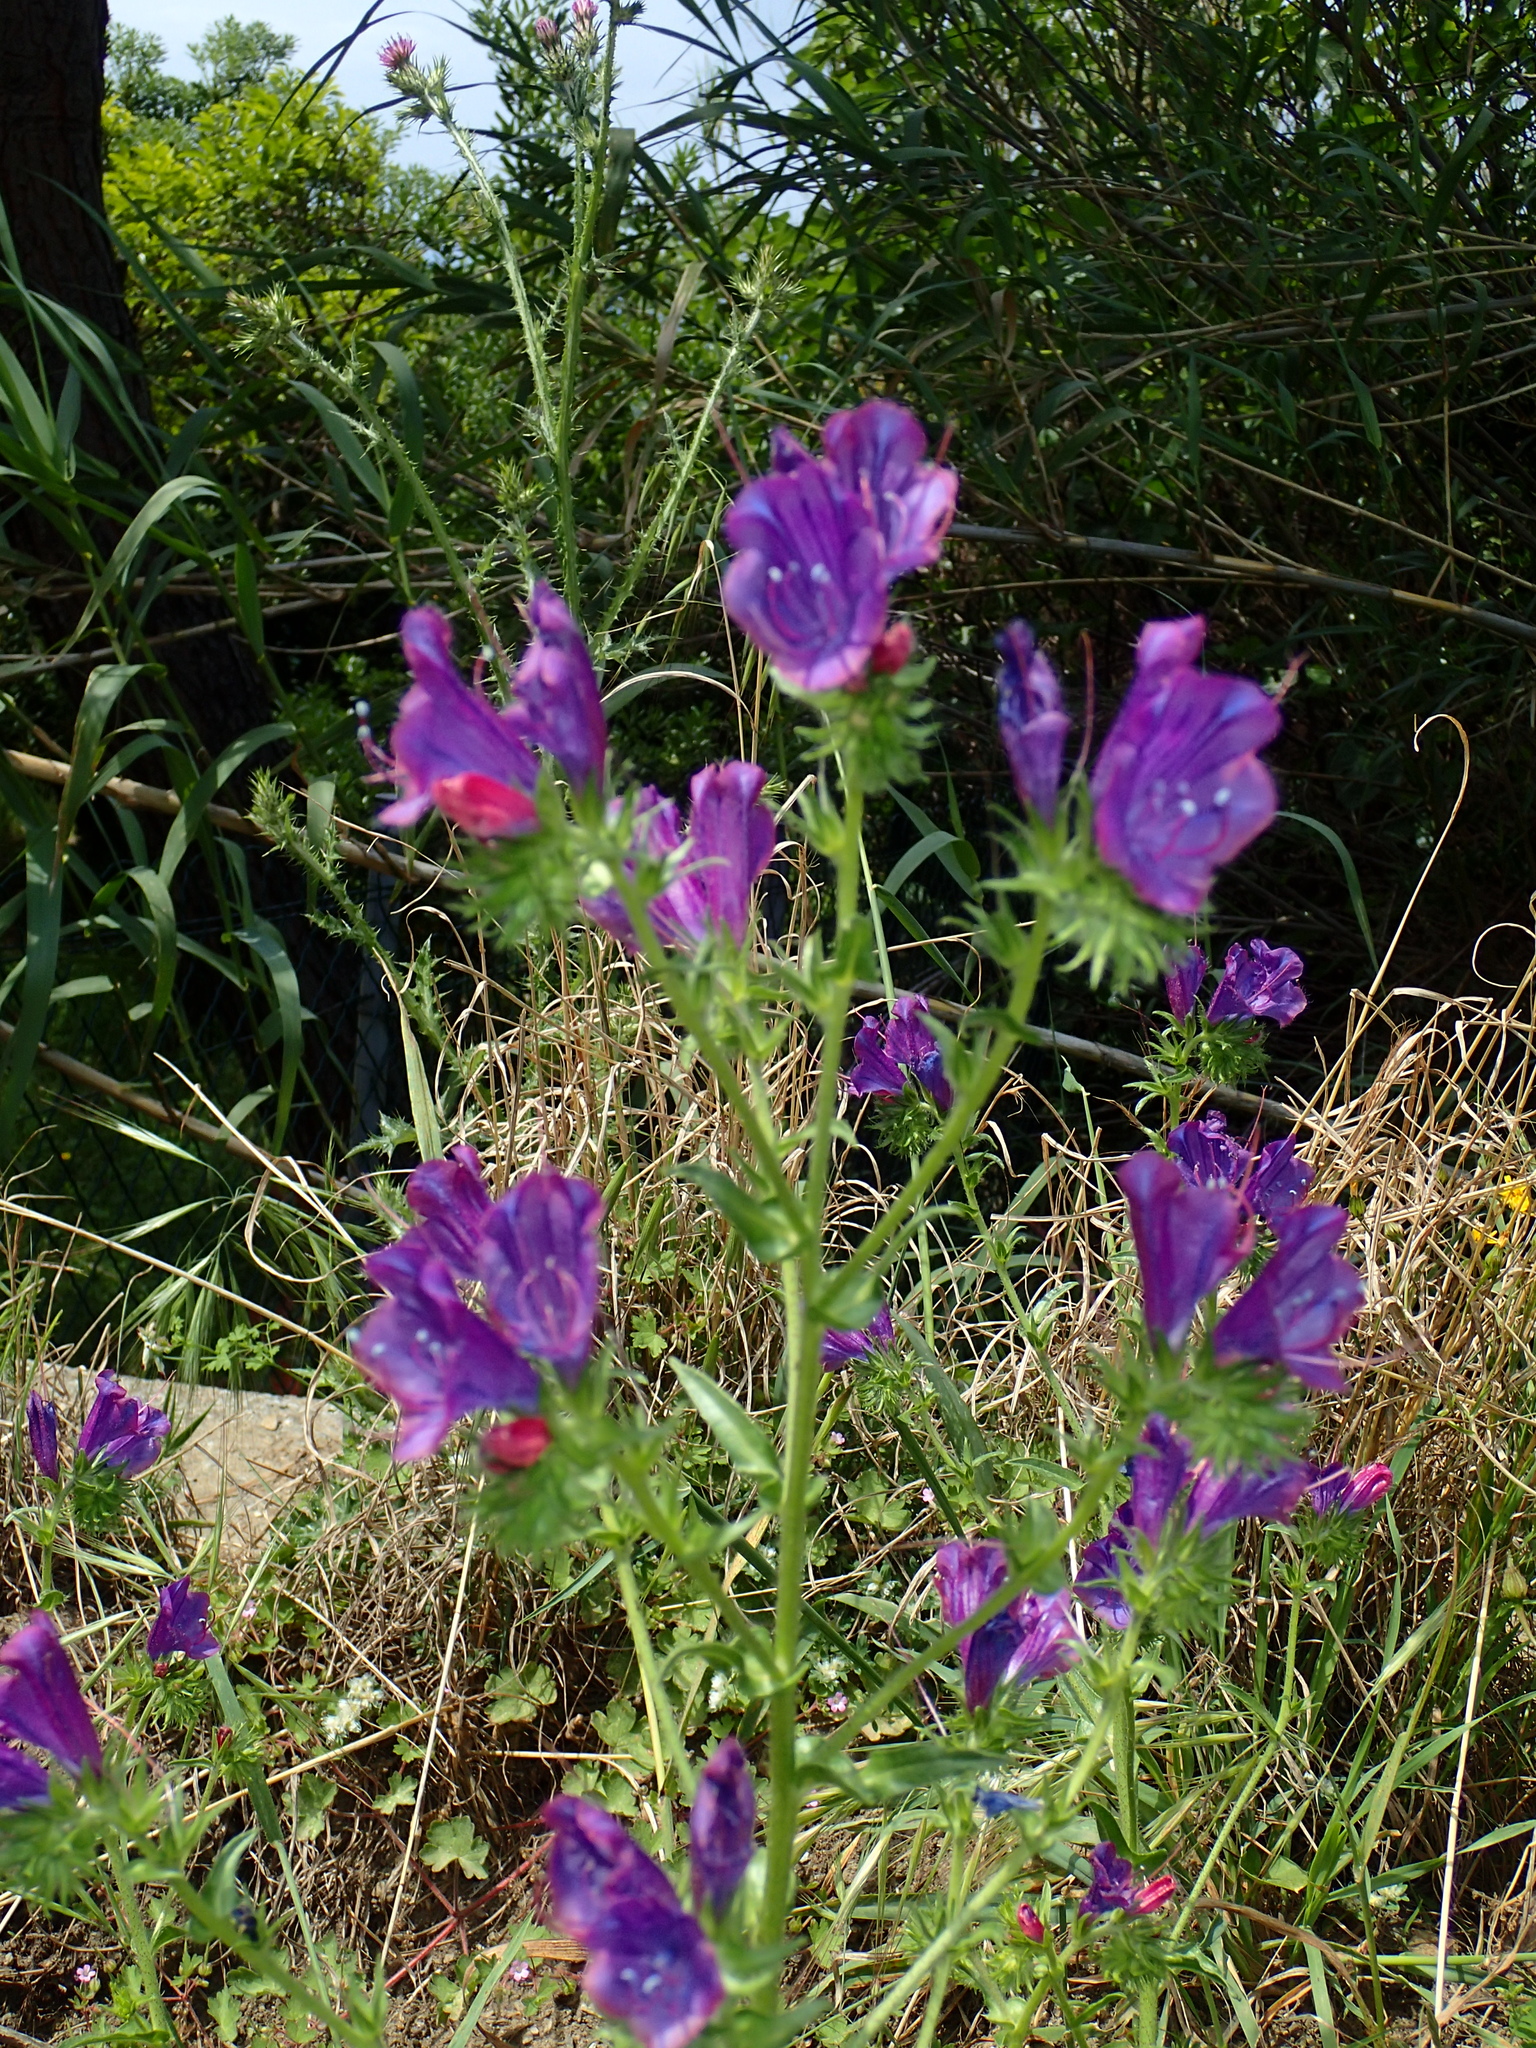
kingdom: Plantae
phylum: Tracheophyta
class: Magnoliopsida
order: Boraginales
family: Boraginaceae
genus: Echium
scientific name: Echium plantagineum
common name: Purple viper's-bugloss
